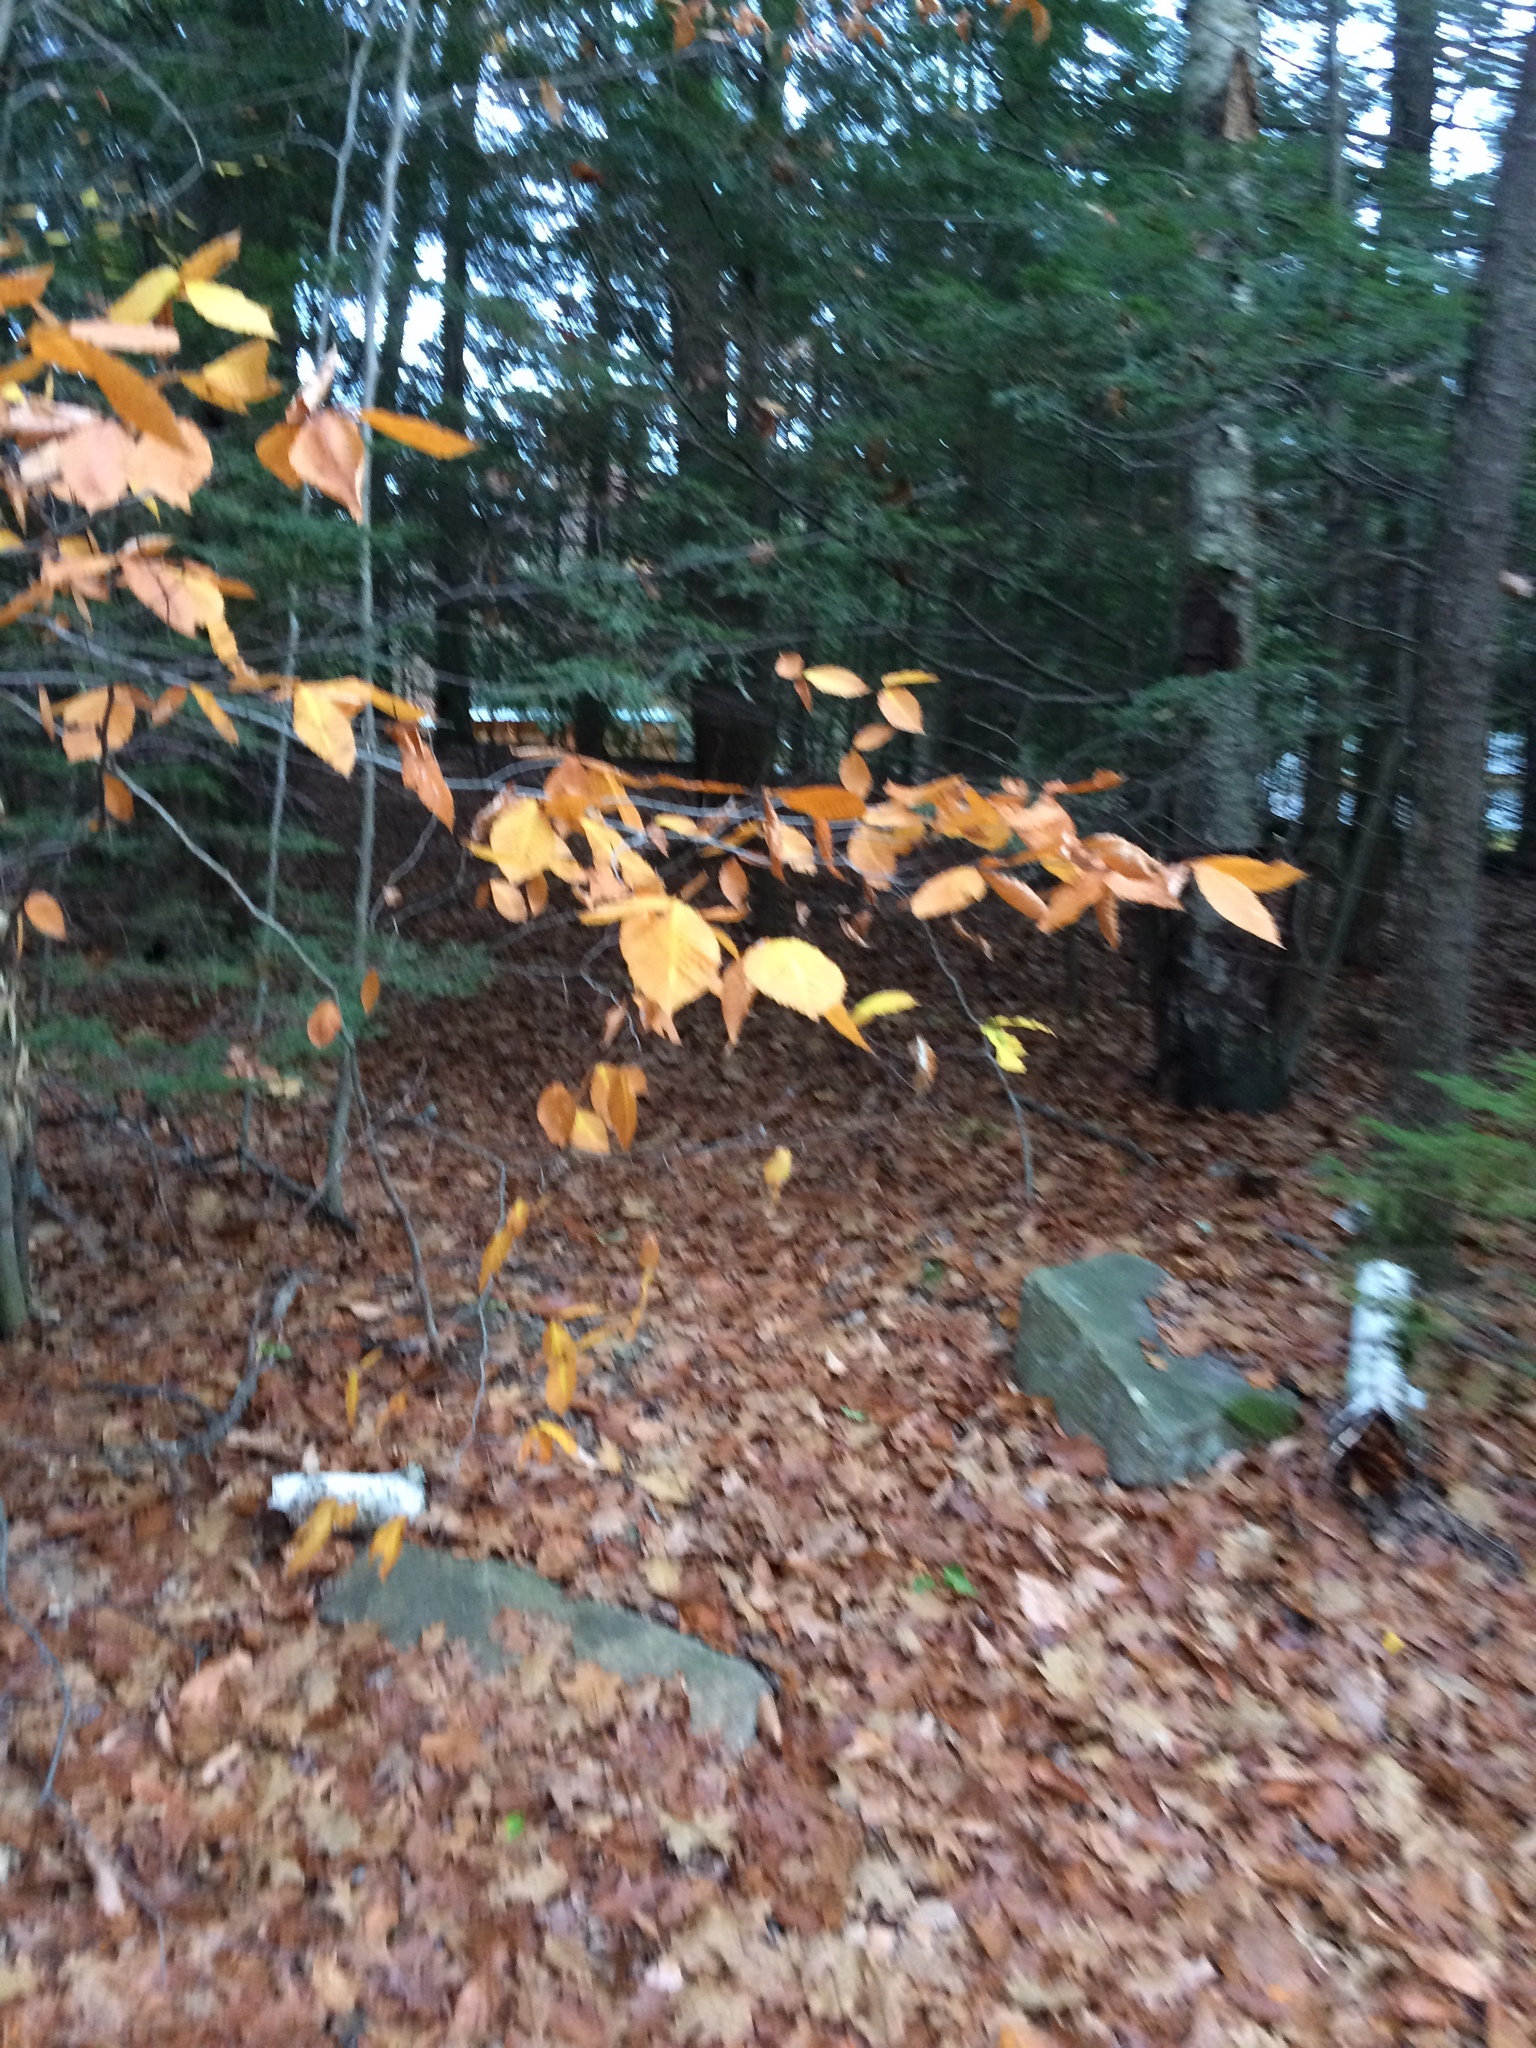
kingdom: Plantae
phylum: Tracheophyta
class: Magnoliopsida
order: Fagales
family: Fagaceae
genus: Fagus
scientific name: Fagus grandifolia
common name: American beech
